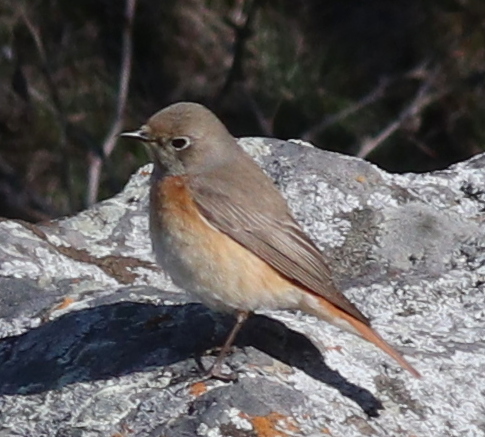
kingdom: Animalia
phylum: Chordata
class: Aves
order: Passeriformes
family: Muscicapidae
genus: Phoenicurus
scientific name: Phoenicurus phoenicurus
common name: Common redstart
